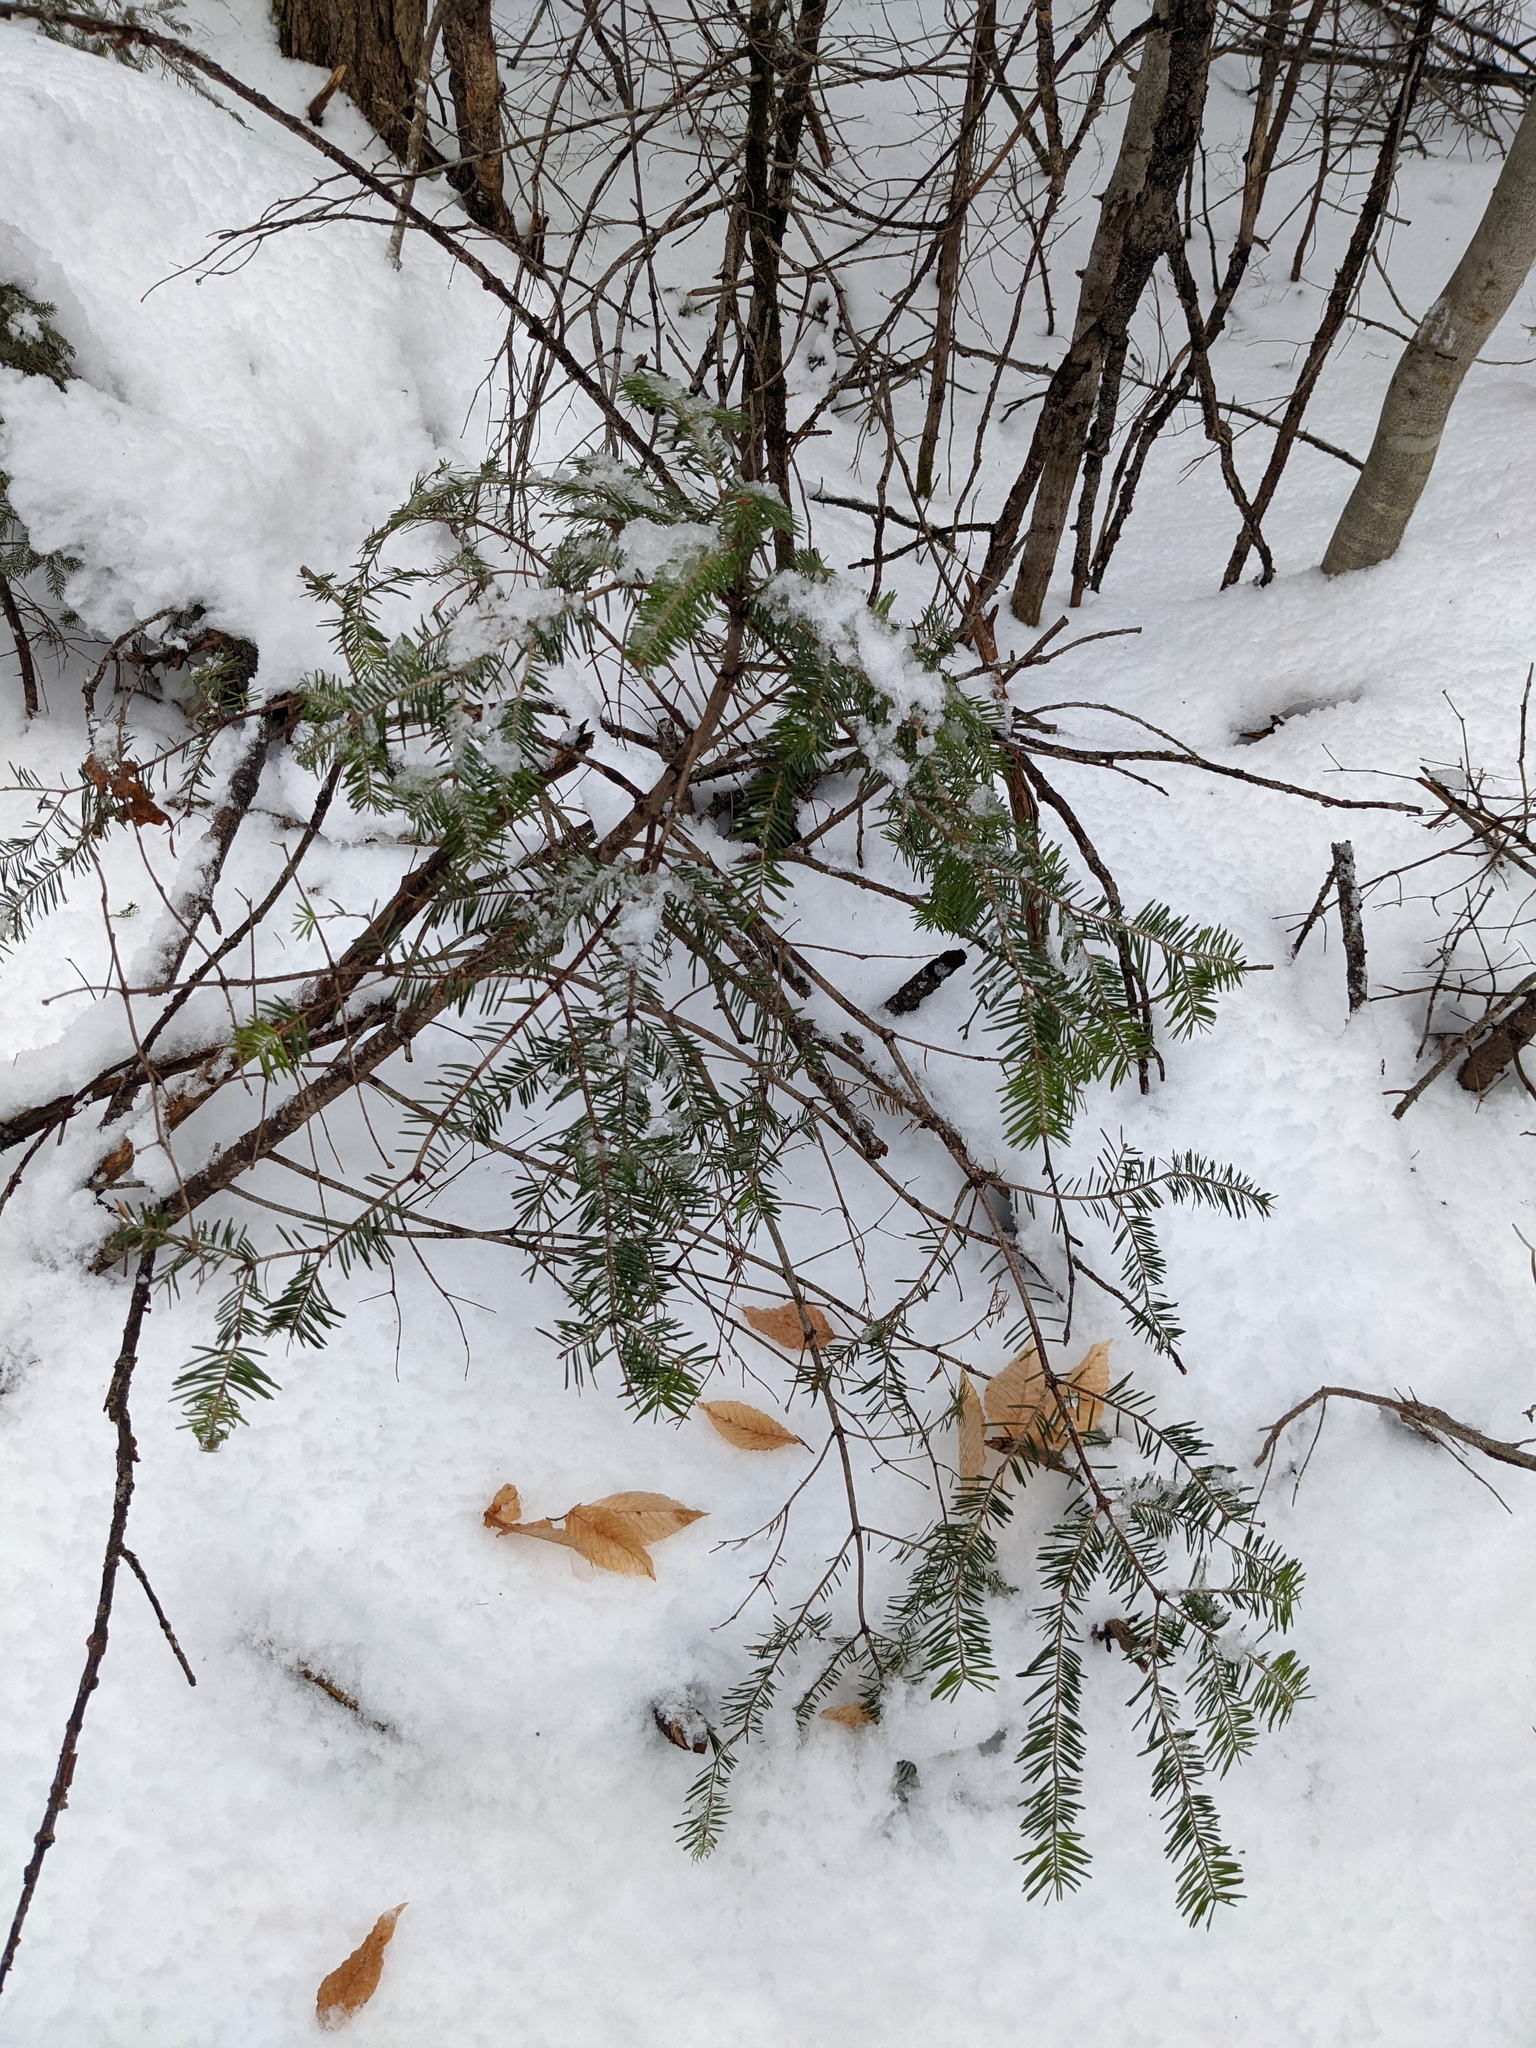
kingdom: Plantae
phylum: Tracheophyta
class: Pinopsida
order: Pinales
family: Pinaceae
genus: Abies
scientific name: Abies balsamea
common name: Balsam fir
